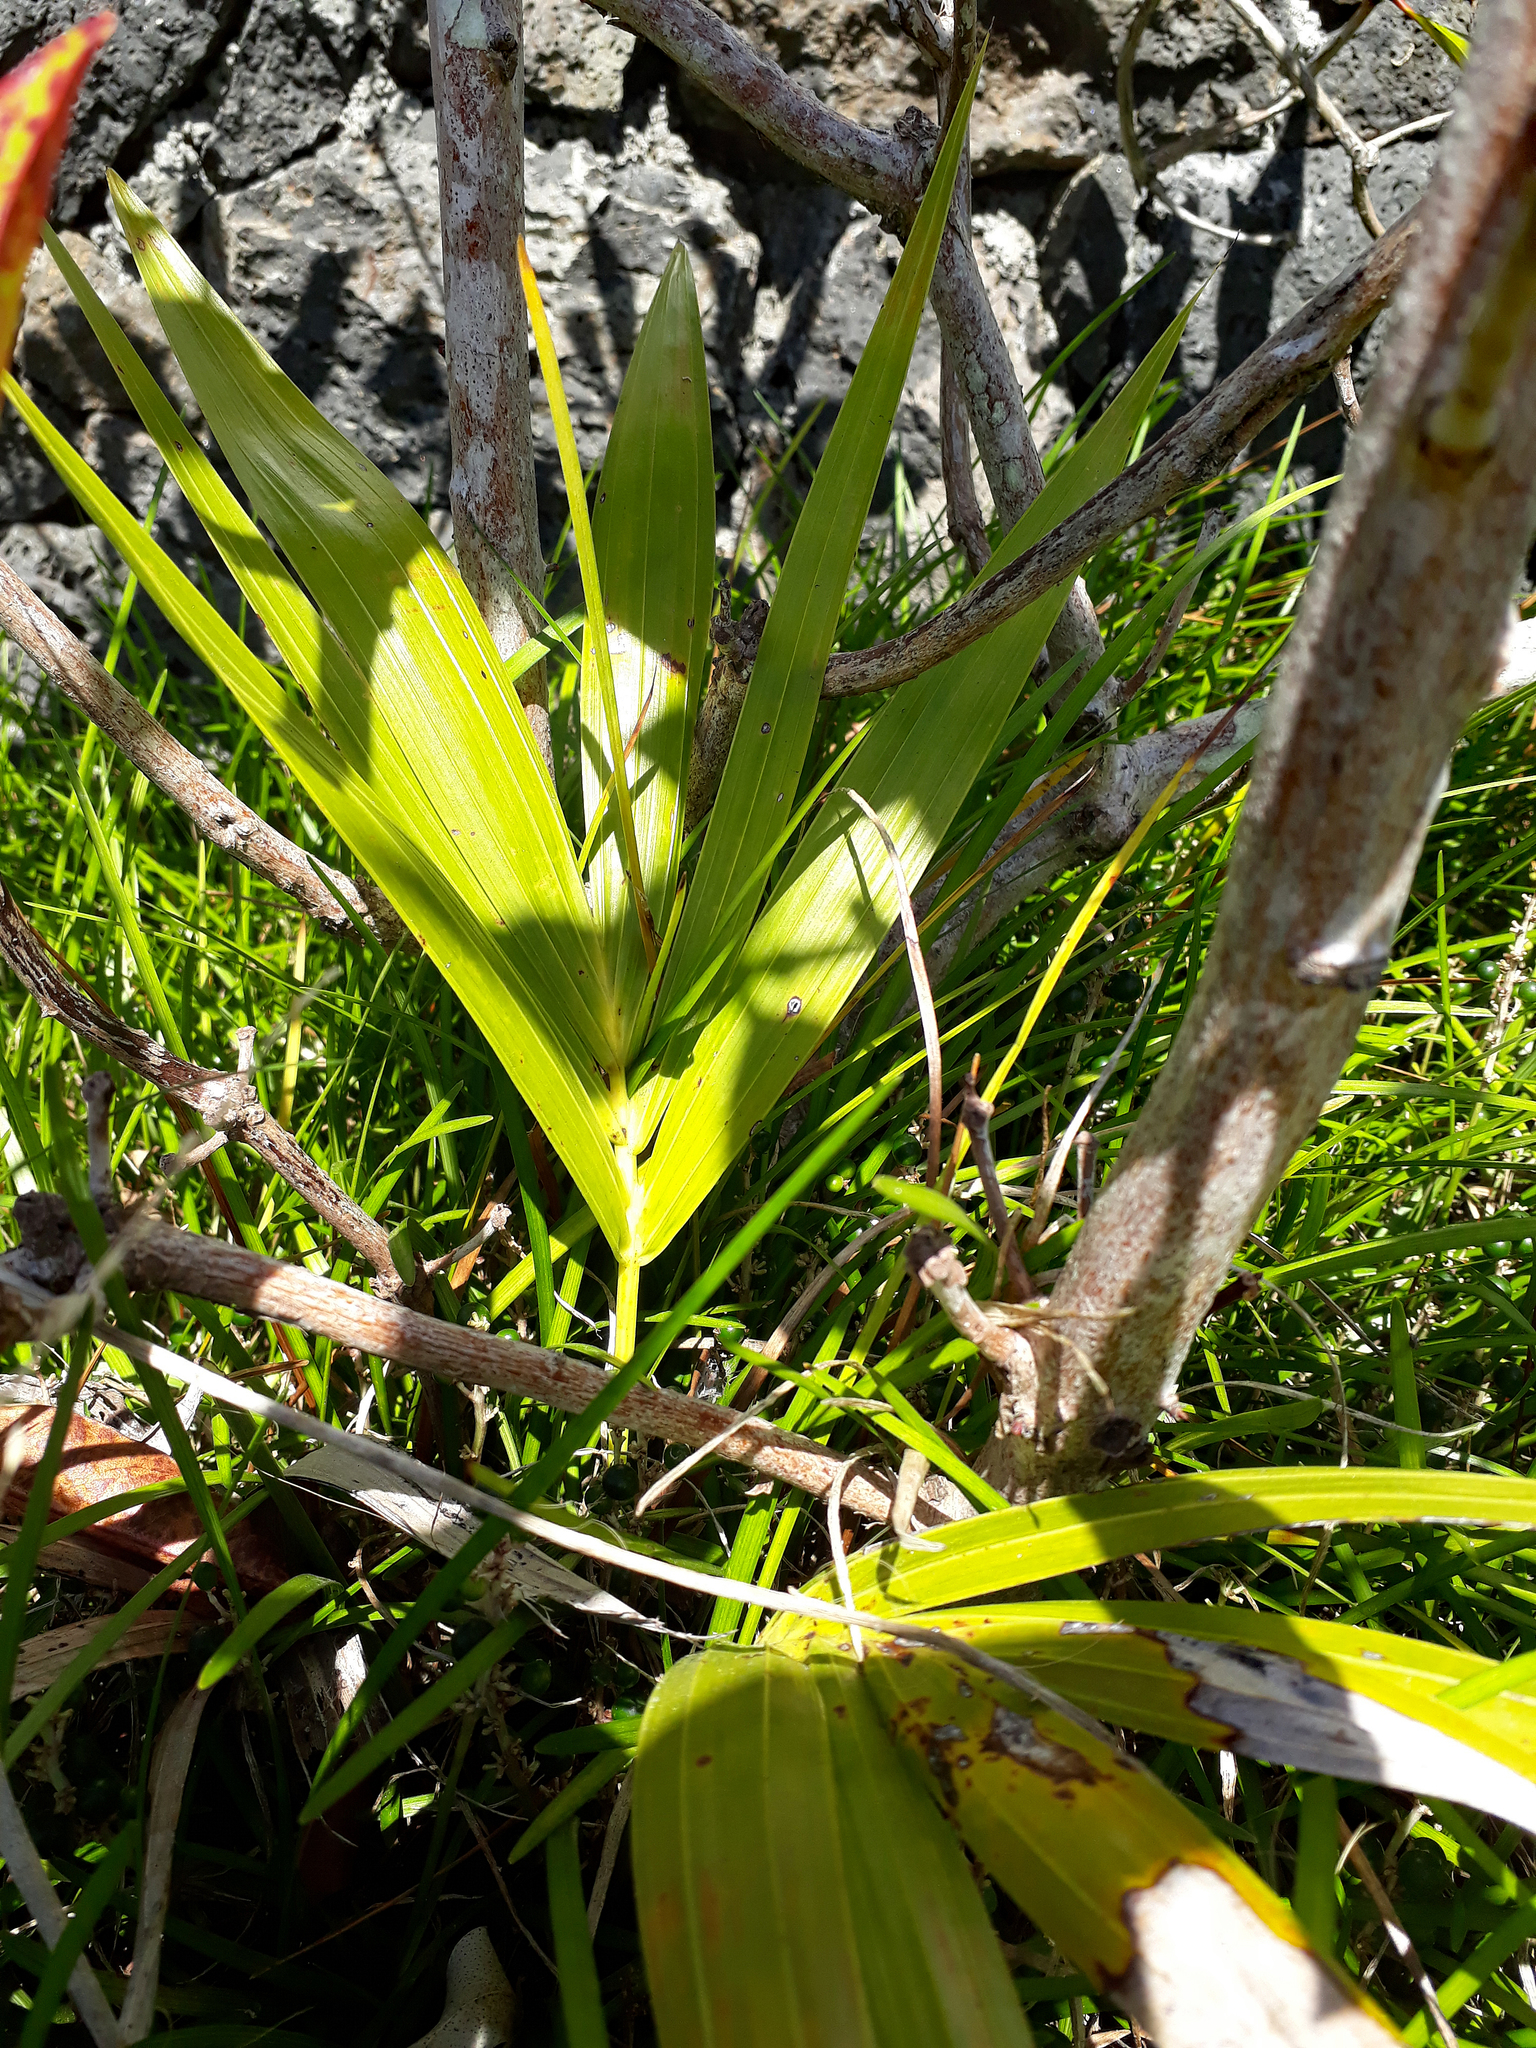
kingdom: Plantae
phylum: Tracheophyta
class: Liliopsida
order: Arecales
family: Arecaceae
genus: Howea
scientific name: Howea forsteriana
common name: Kentia palm
